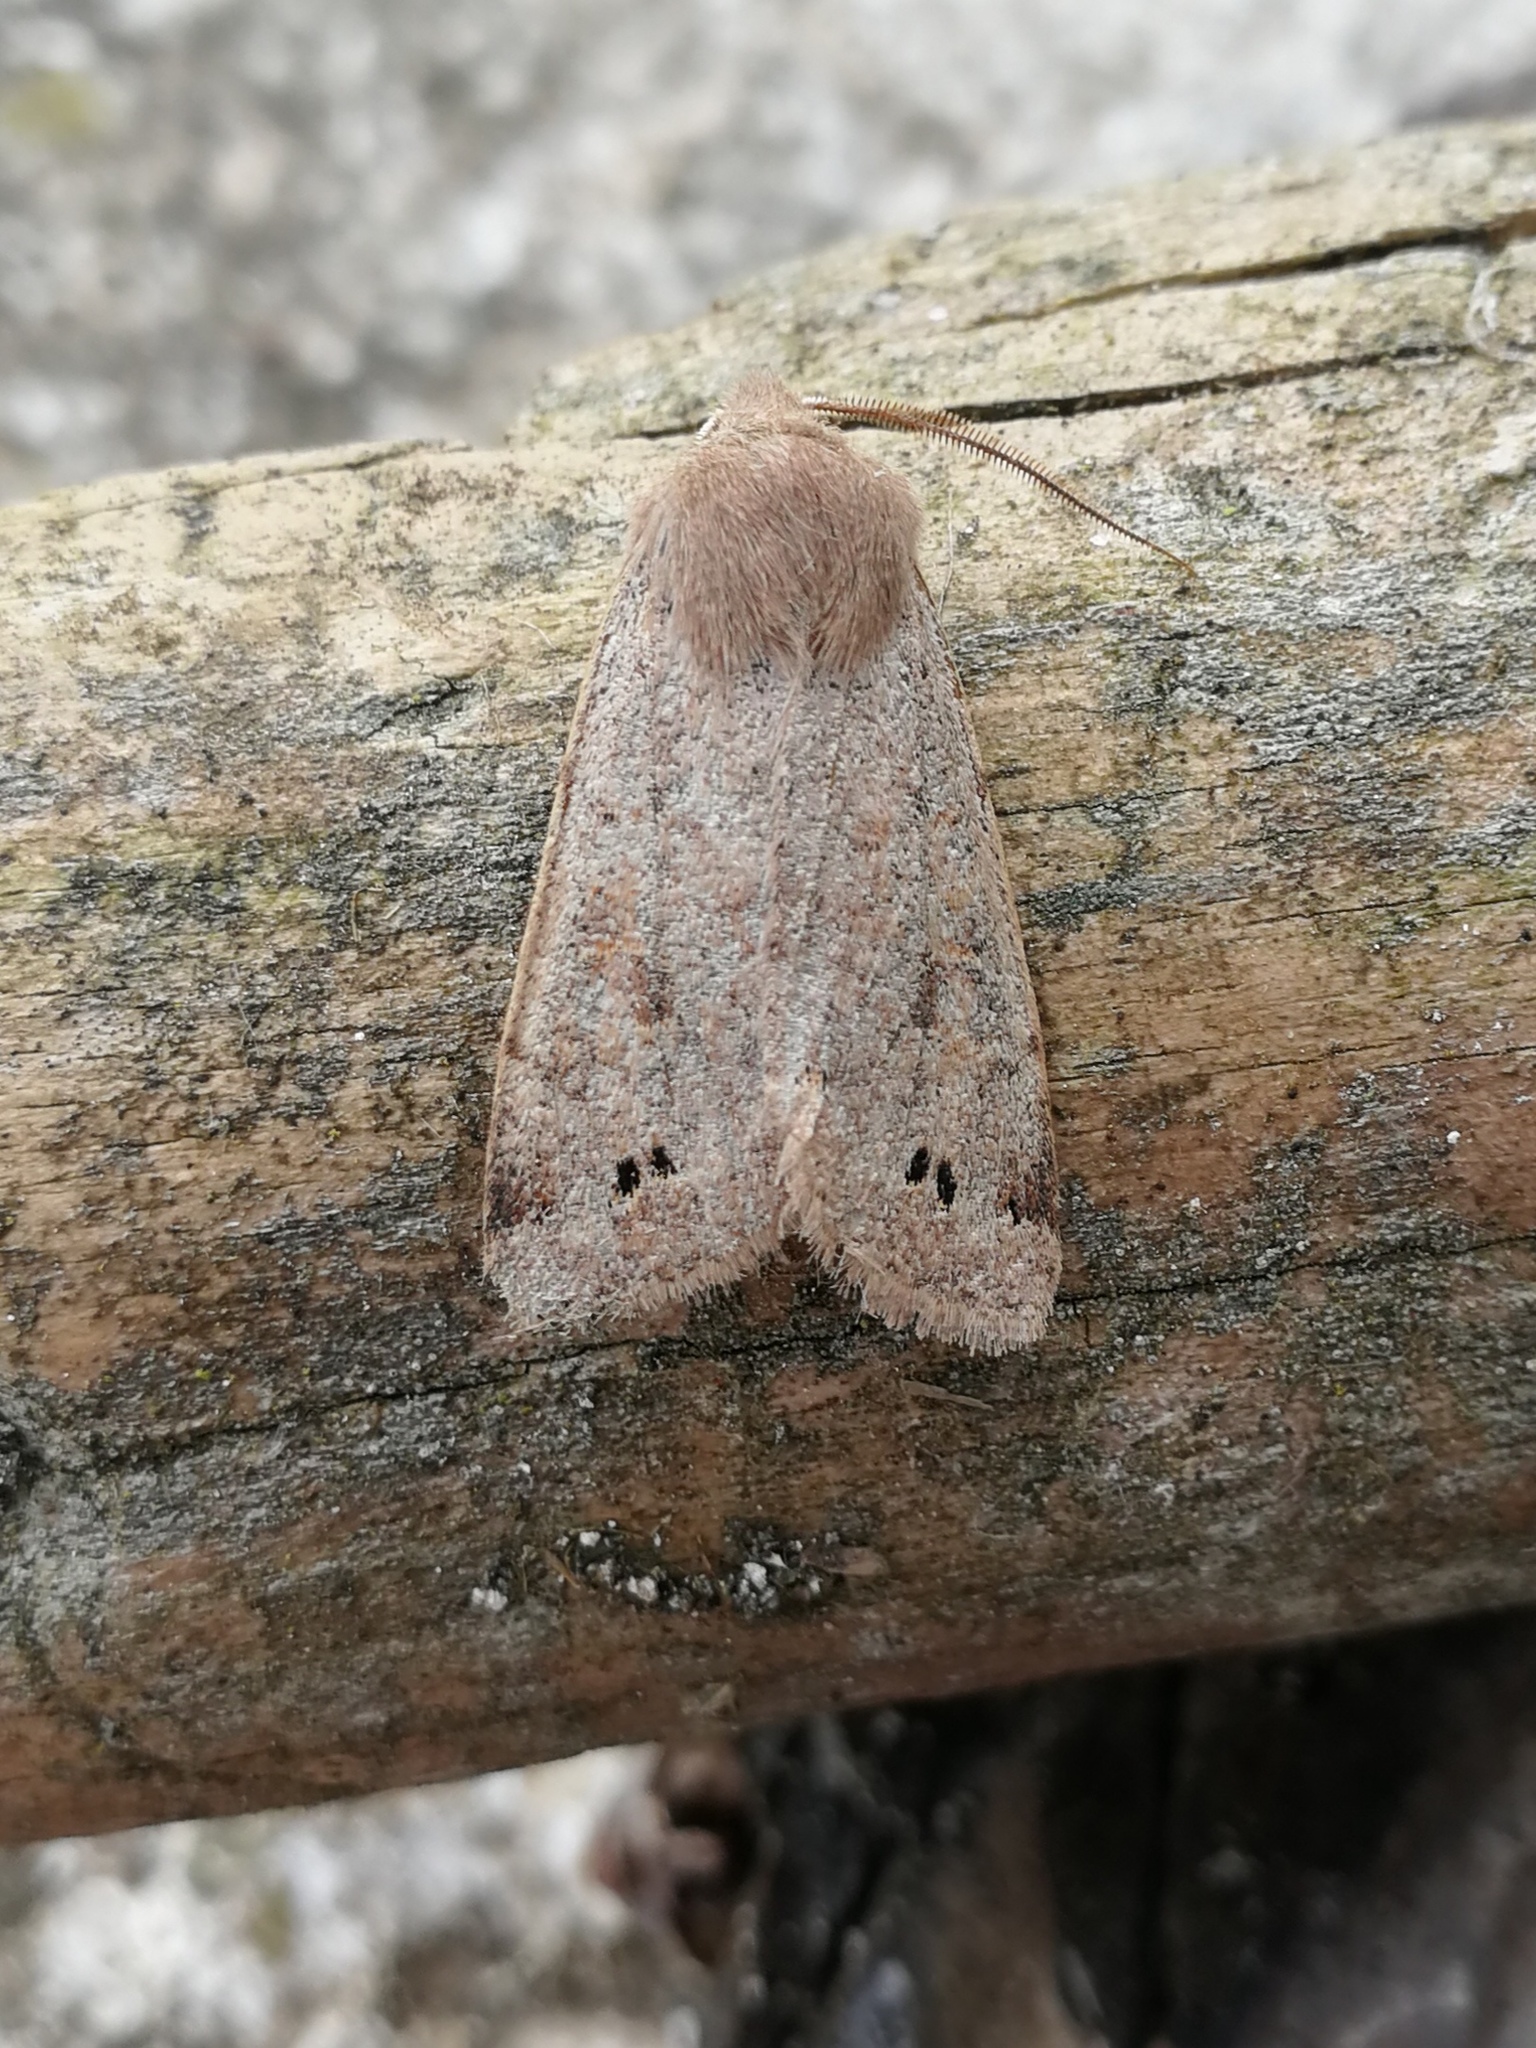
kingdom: Animalia
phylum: Arthropoda
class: Insecta
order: Lepidoptera
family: Noctuidae
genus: Anorthoa
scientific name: Anorthoa munda
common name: Twin-spotted quaker
